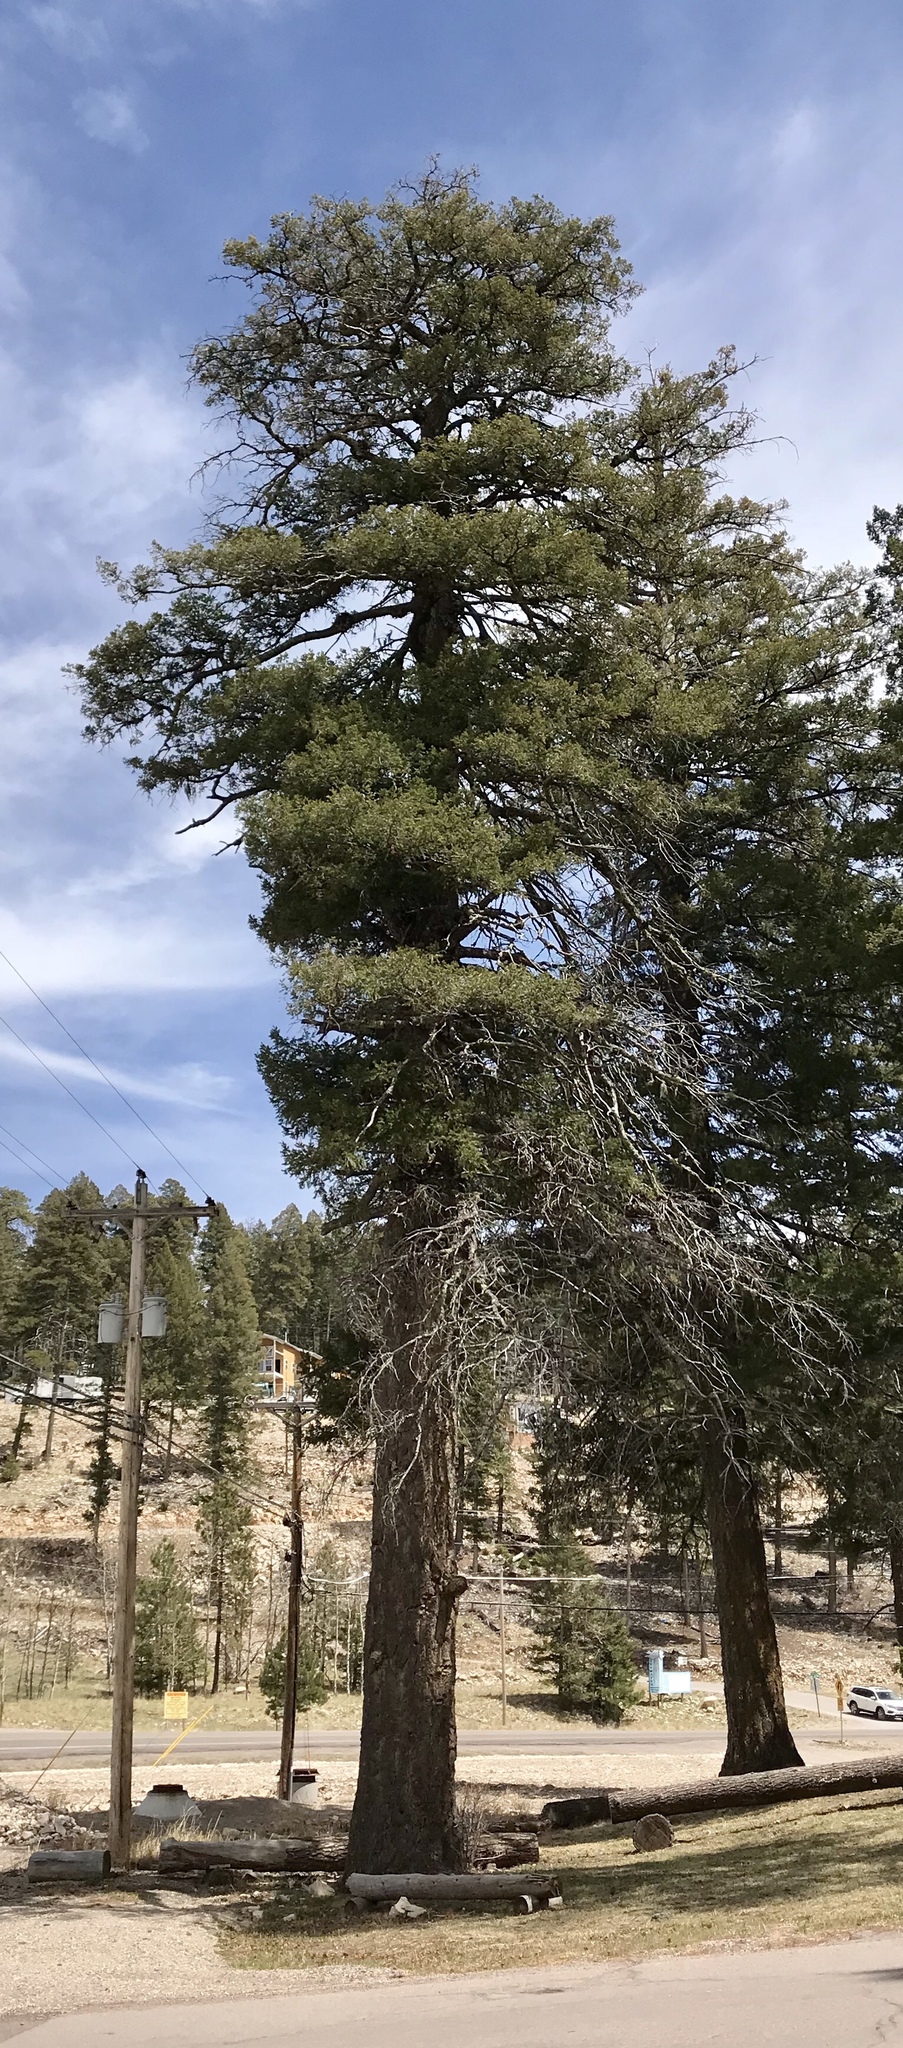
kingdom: Plantae
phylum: Tracheophyta
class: Pinopsida
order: Pinales
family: Pinaceae
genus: Pseudotsuga
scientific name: Pseudotsuga menziesii
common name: Douglas fir
